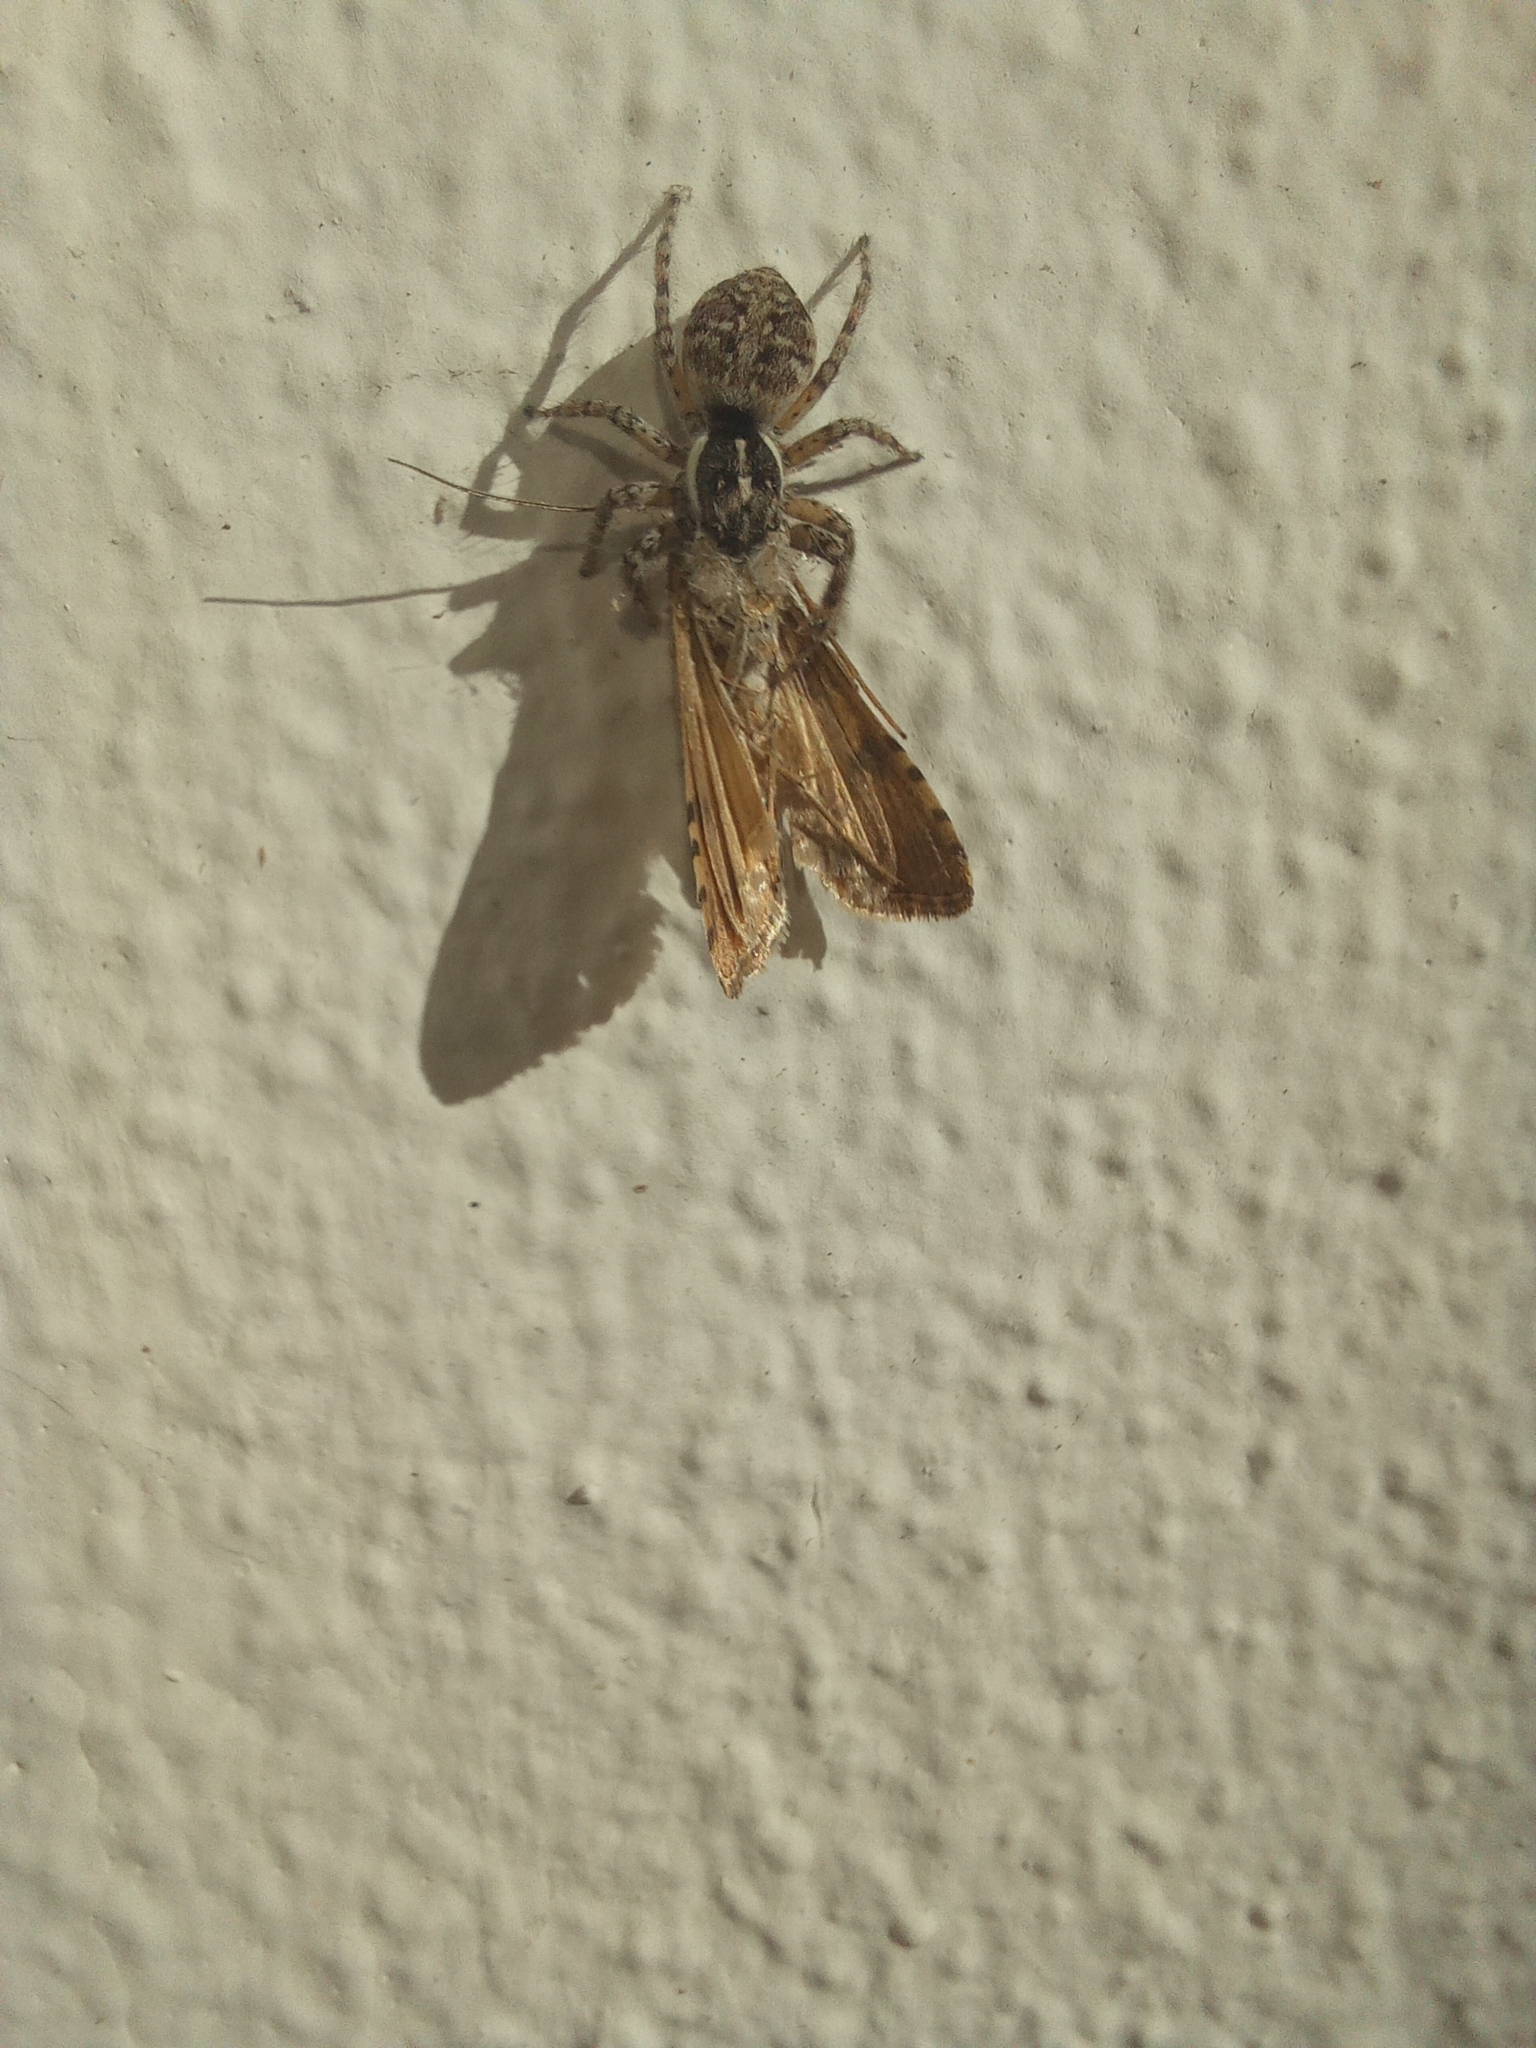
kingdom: Animalia
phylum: Arthropoda
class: Arachnida
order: Araneae
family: Salticidae
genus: Menemerus
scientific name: Menemerus semilimbatus
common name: Jumping spider
